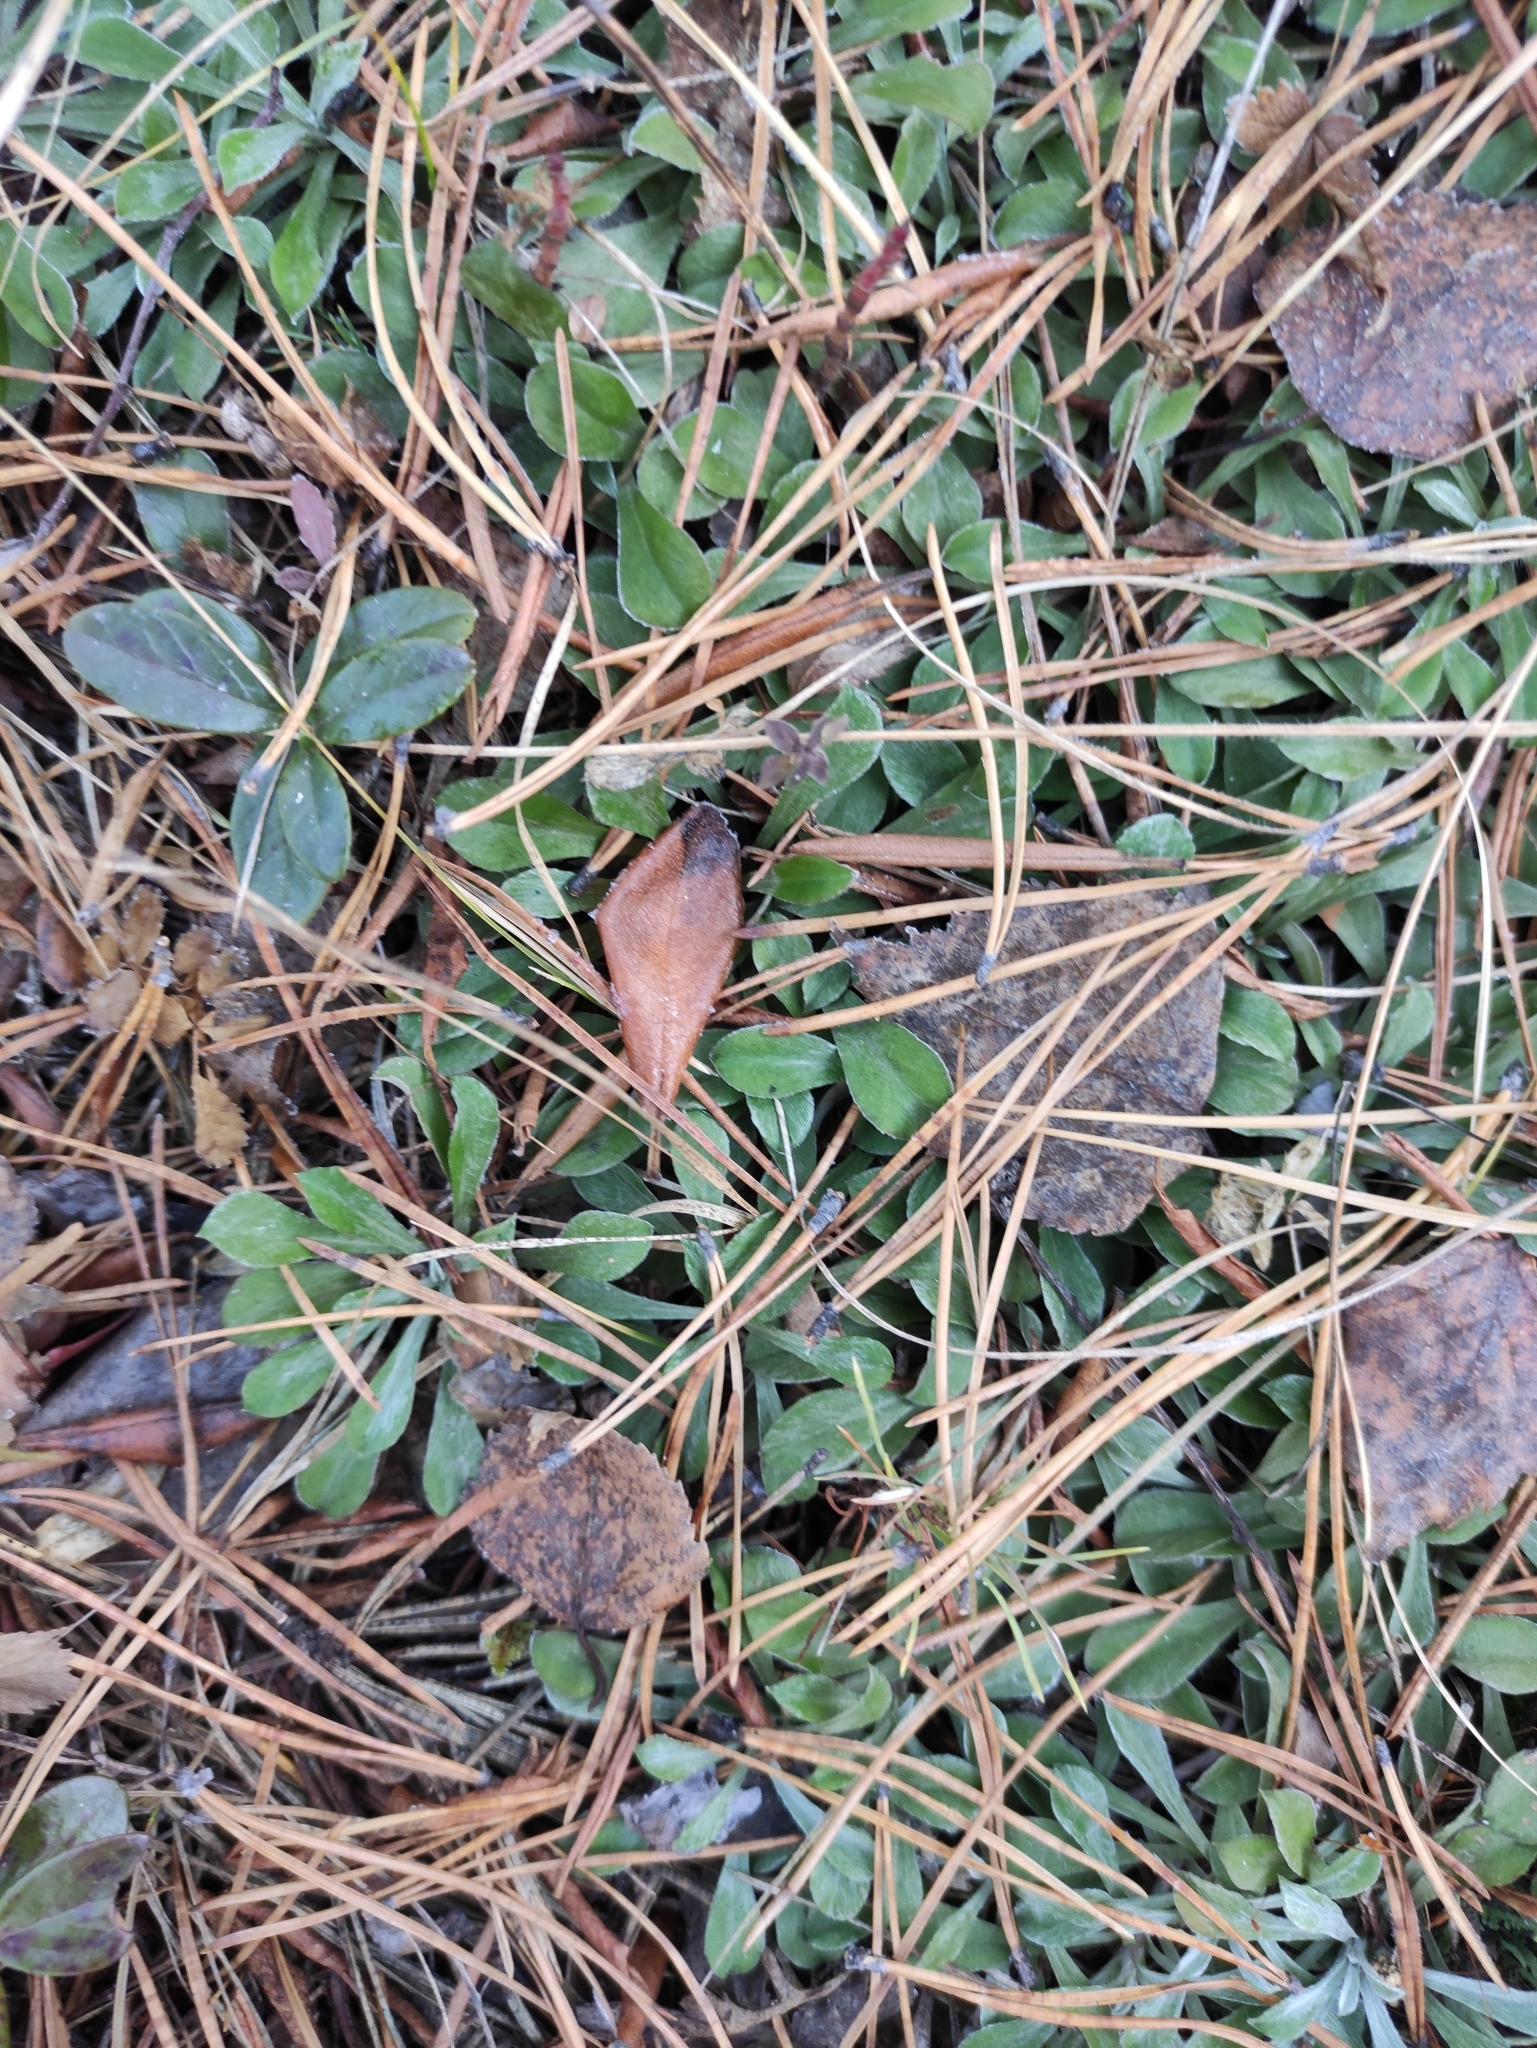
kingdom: Plantae
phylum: Tracheophyta
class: Magnoliopsida
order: Asterales
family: Asteraceae
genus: Antennaria
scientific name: Antennaria dioica
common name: Mountain everlasting
